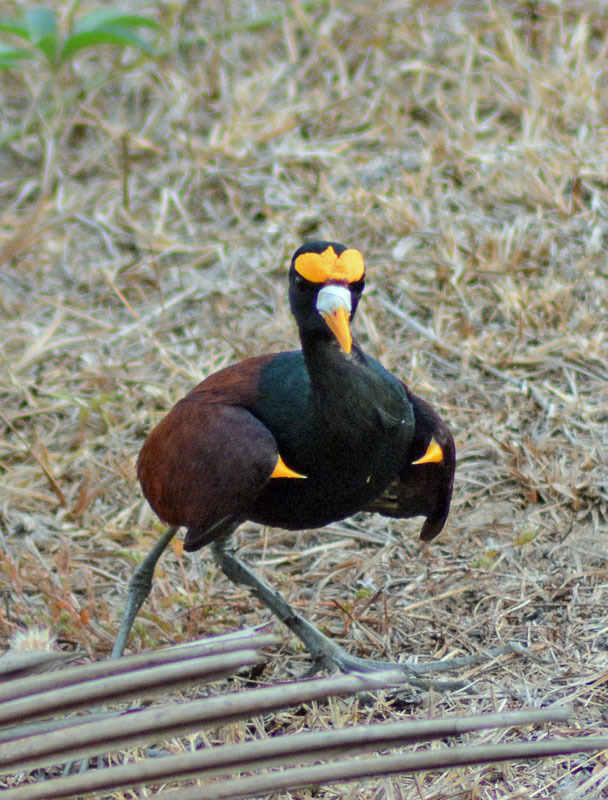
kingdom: Animalia
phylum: Chordata
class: Aves
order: Charadriiformes
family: Jacanidae
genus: Jacana
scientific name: Jacana spinosa
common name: Northern jacana
